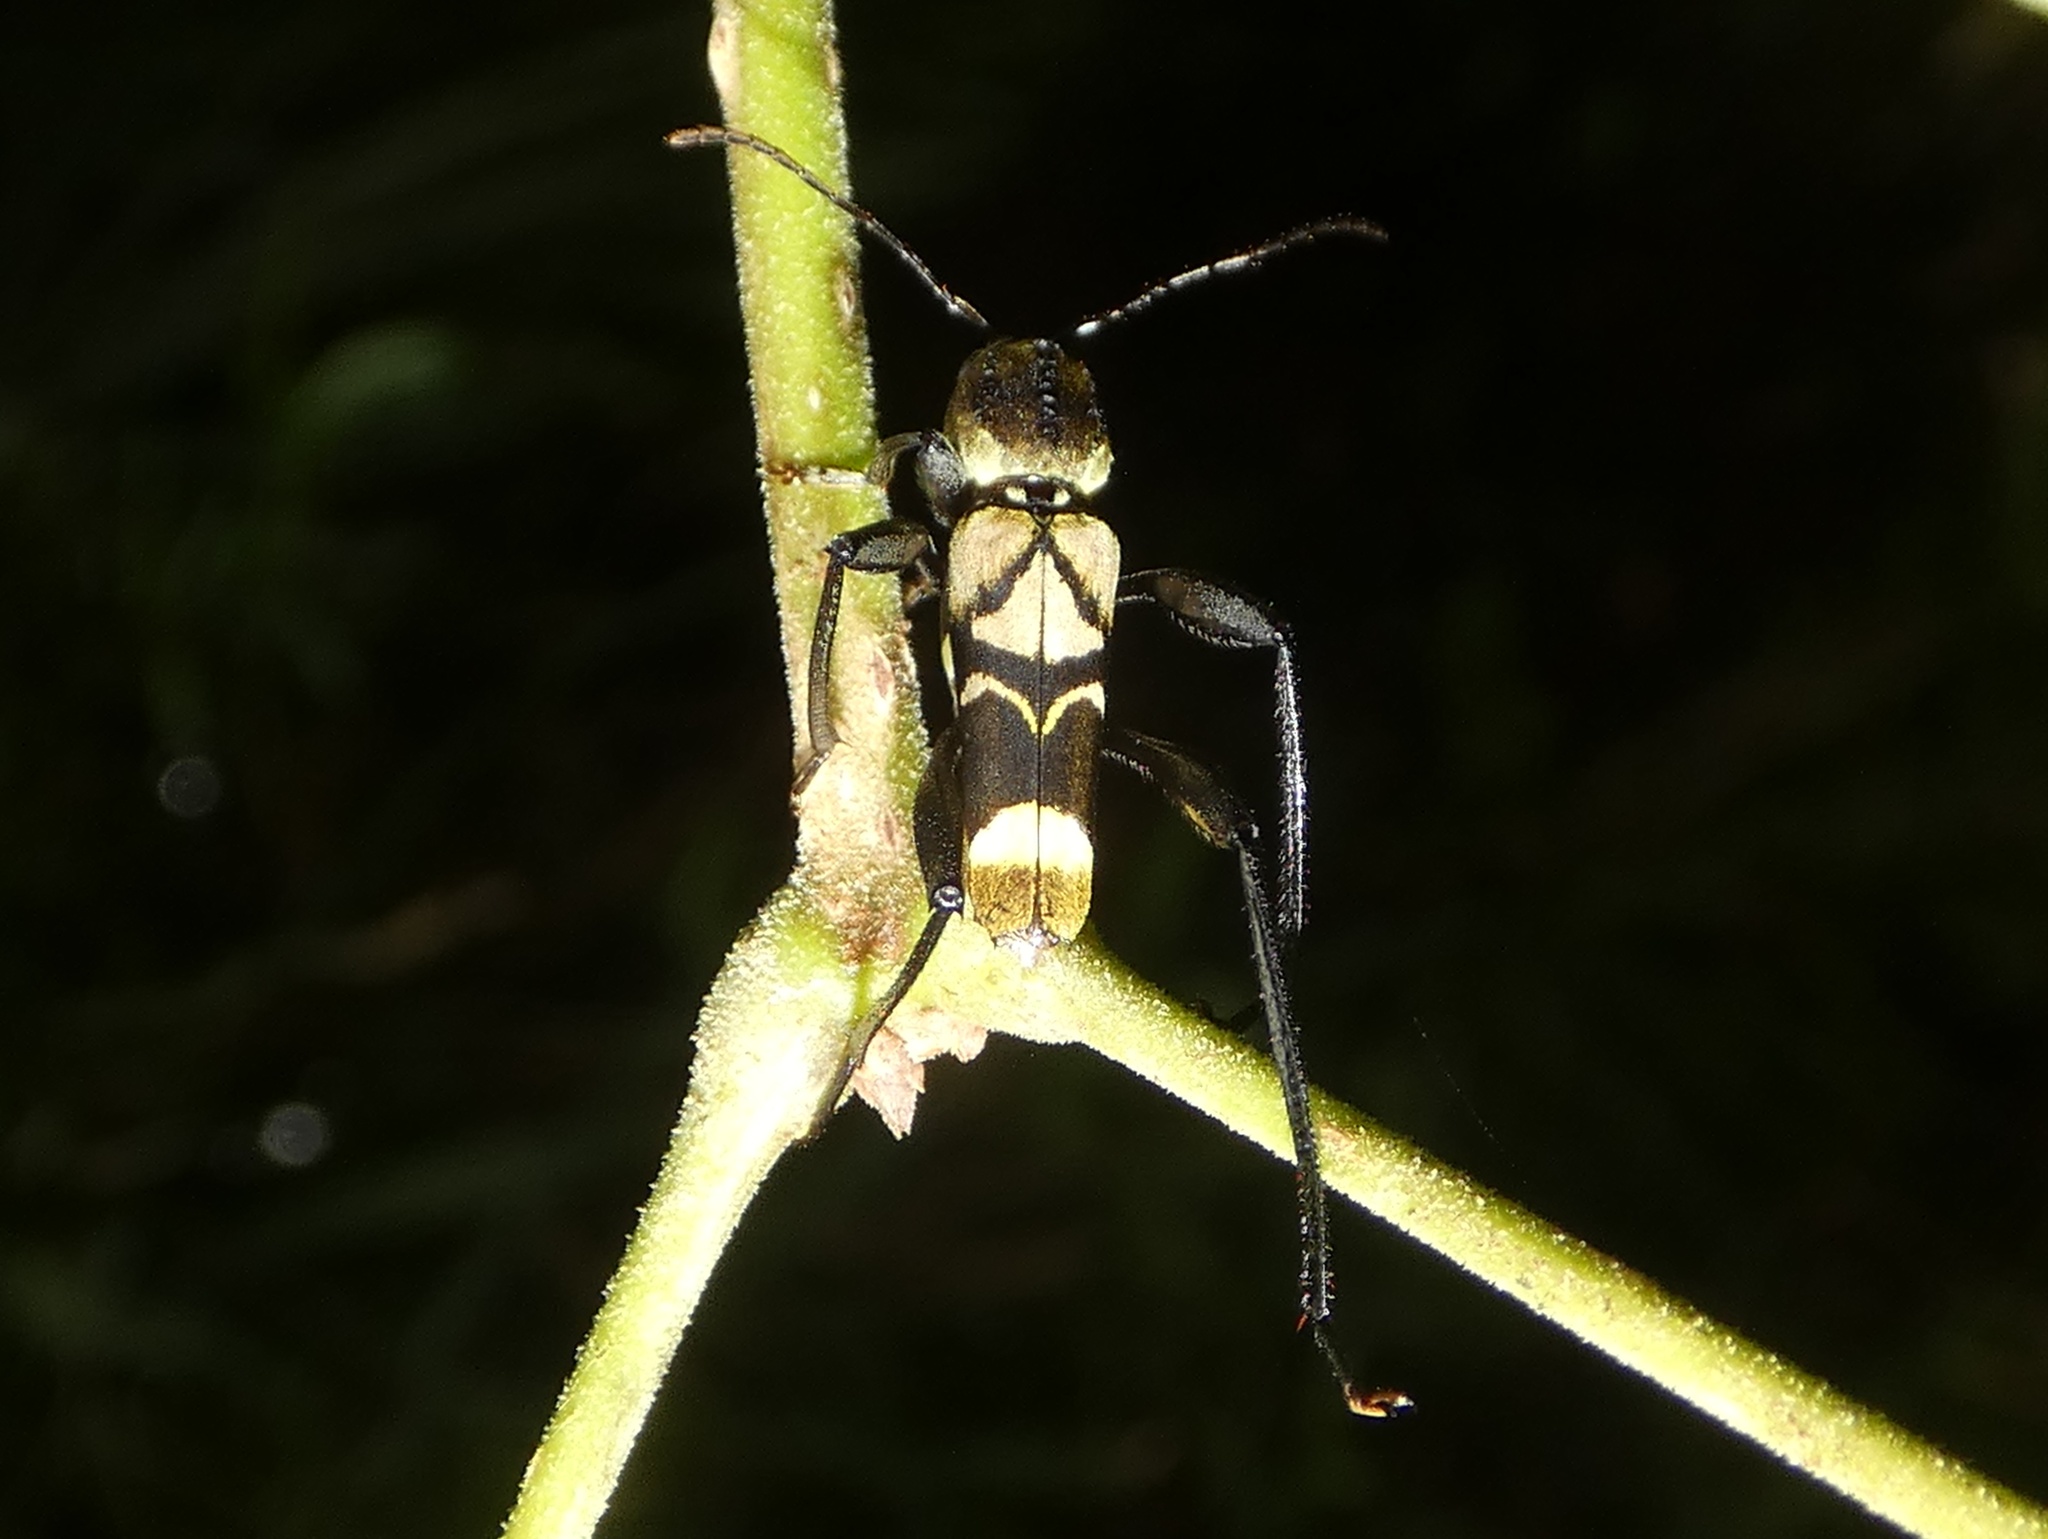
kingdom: Animalia
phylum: Arthropoda
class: Insecta
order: Coleoptera
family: Cerambycidae
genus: Cotyclytus
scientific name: Cotyclytus scenicus
